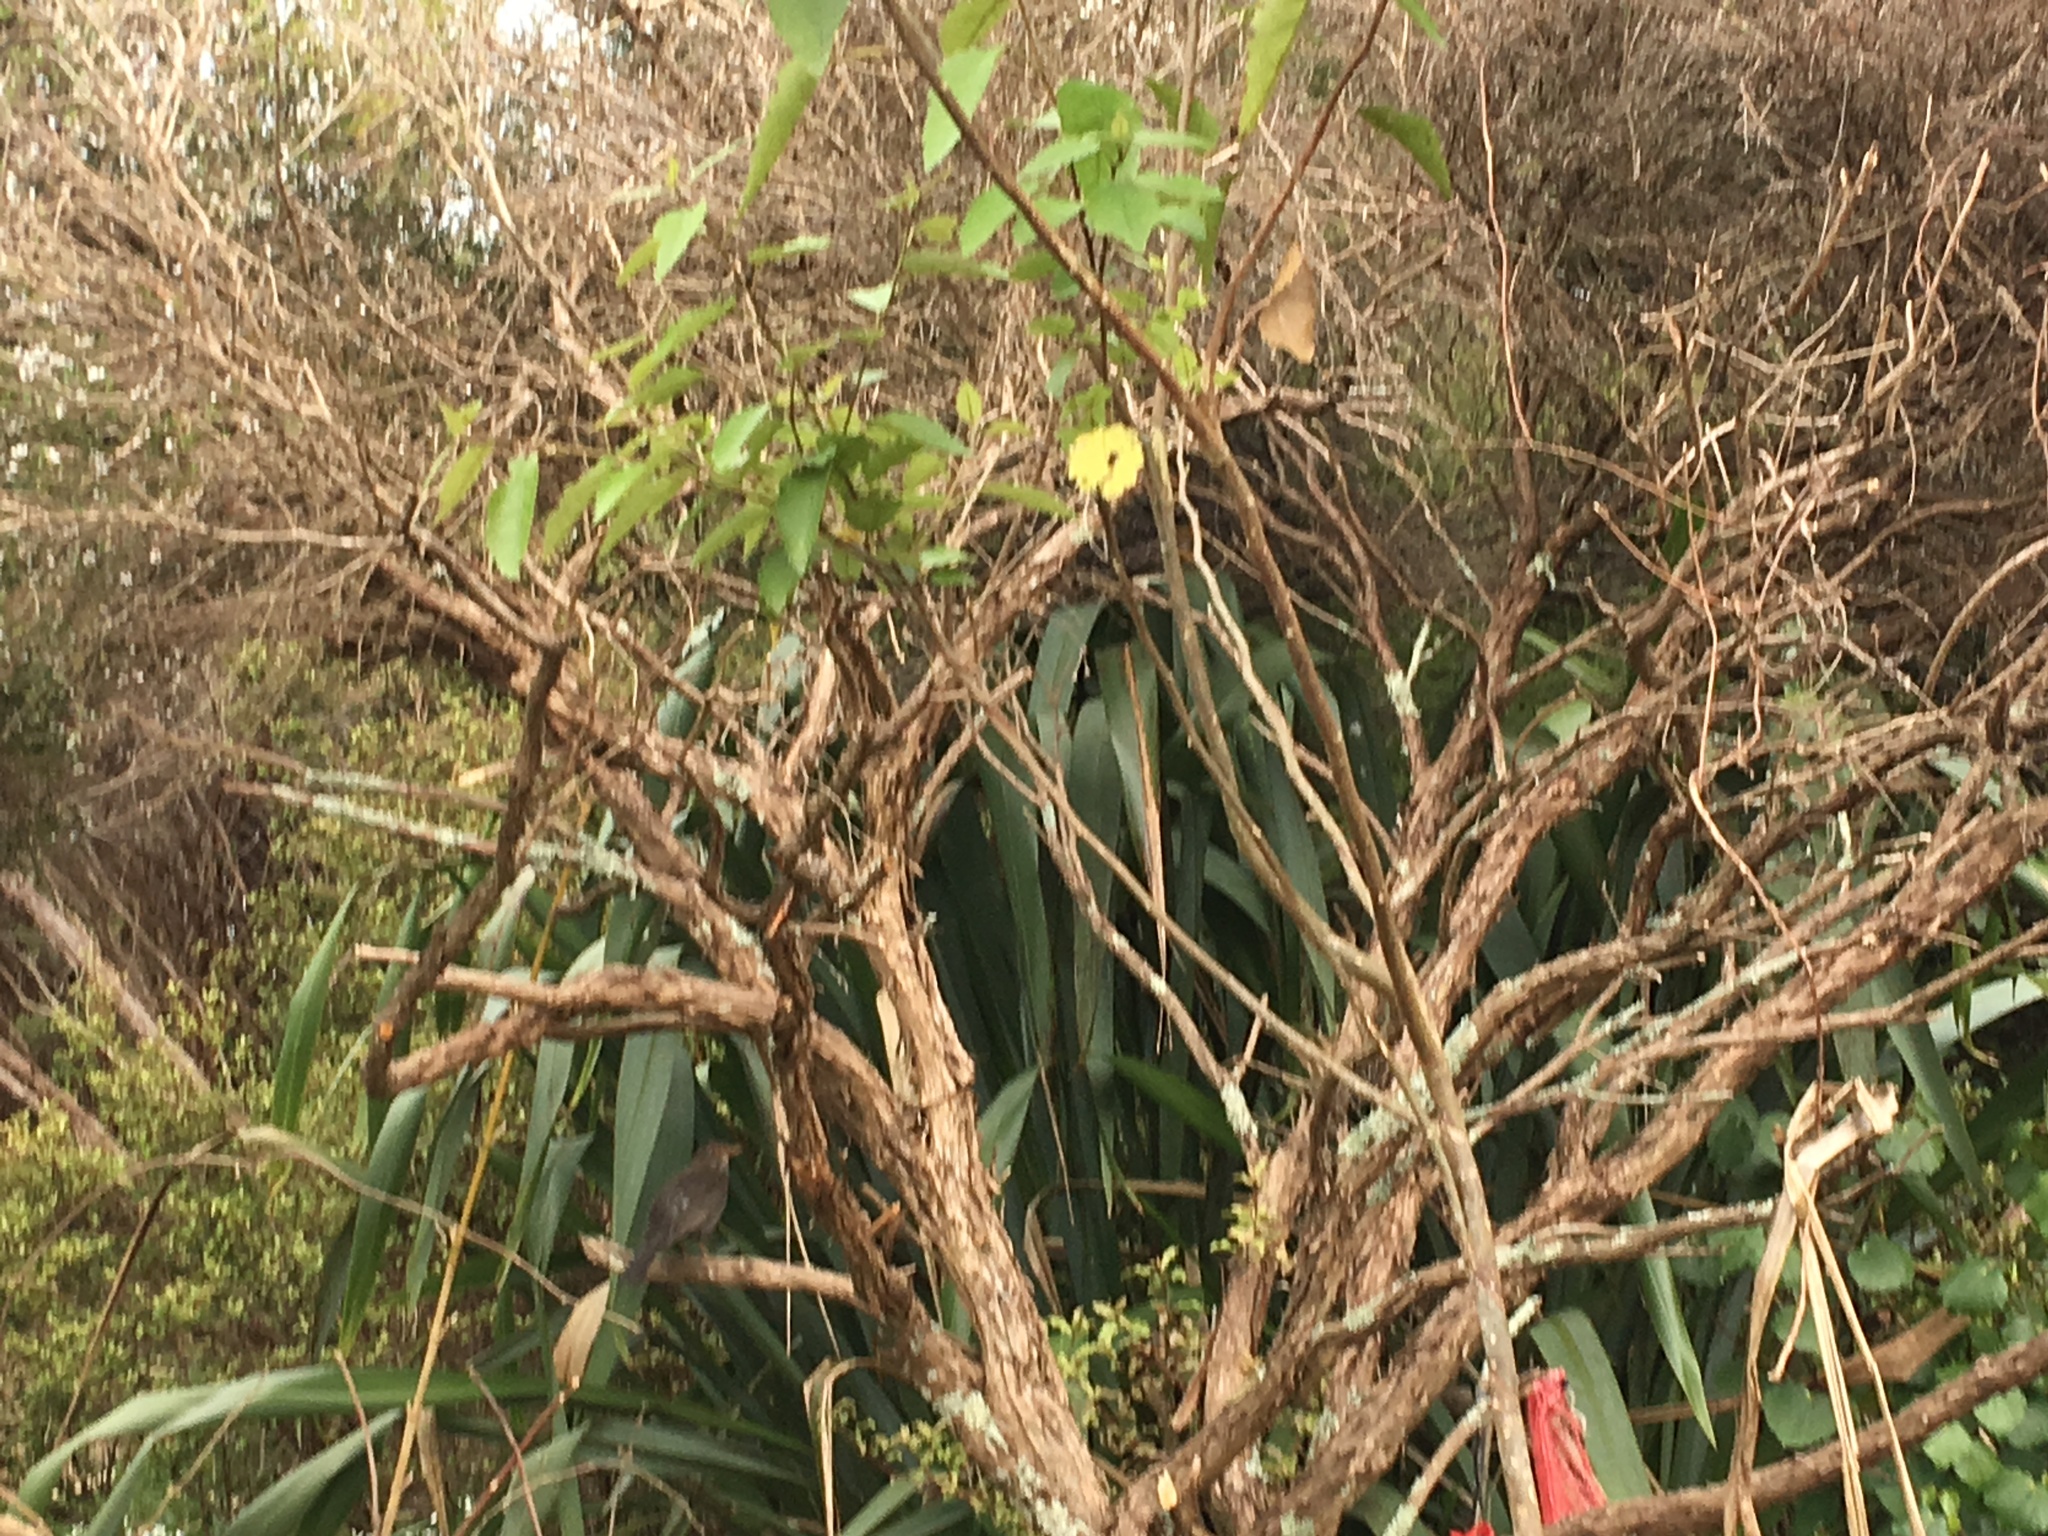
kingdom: Plantae
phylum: Tracheophyta
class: Magnoliopsida
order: Myrtales
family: Myrtaceae
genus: Leptospermum
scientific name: Leptospermum scoparium
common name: Broom tea-tree
